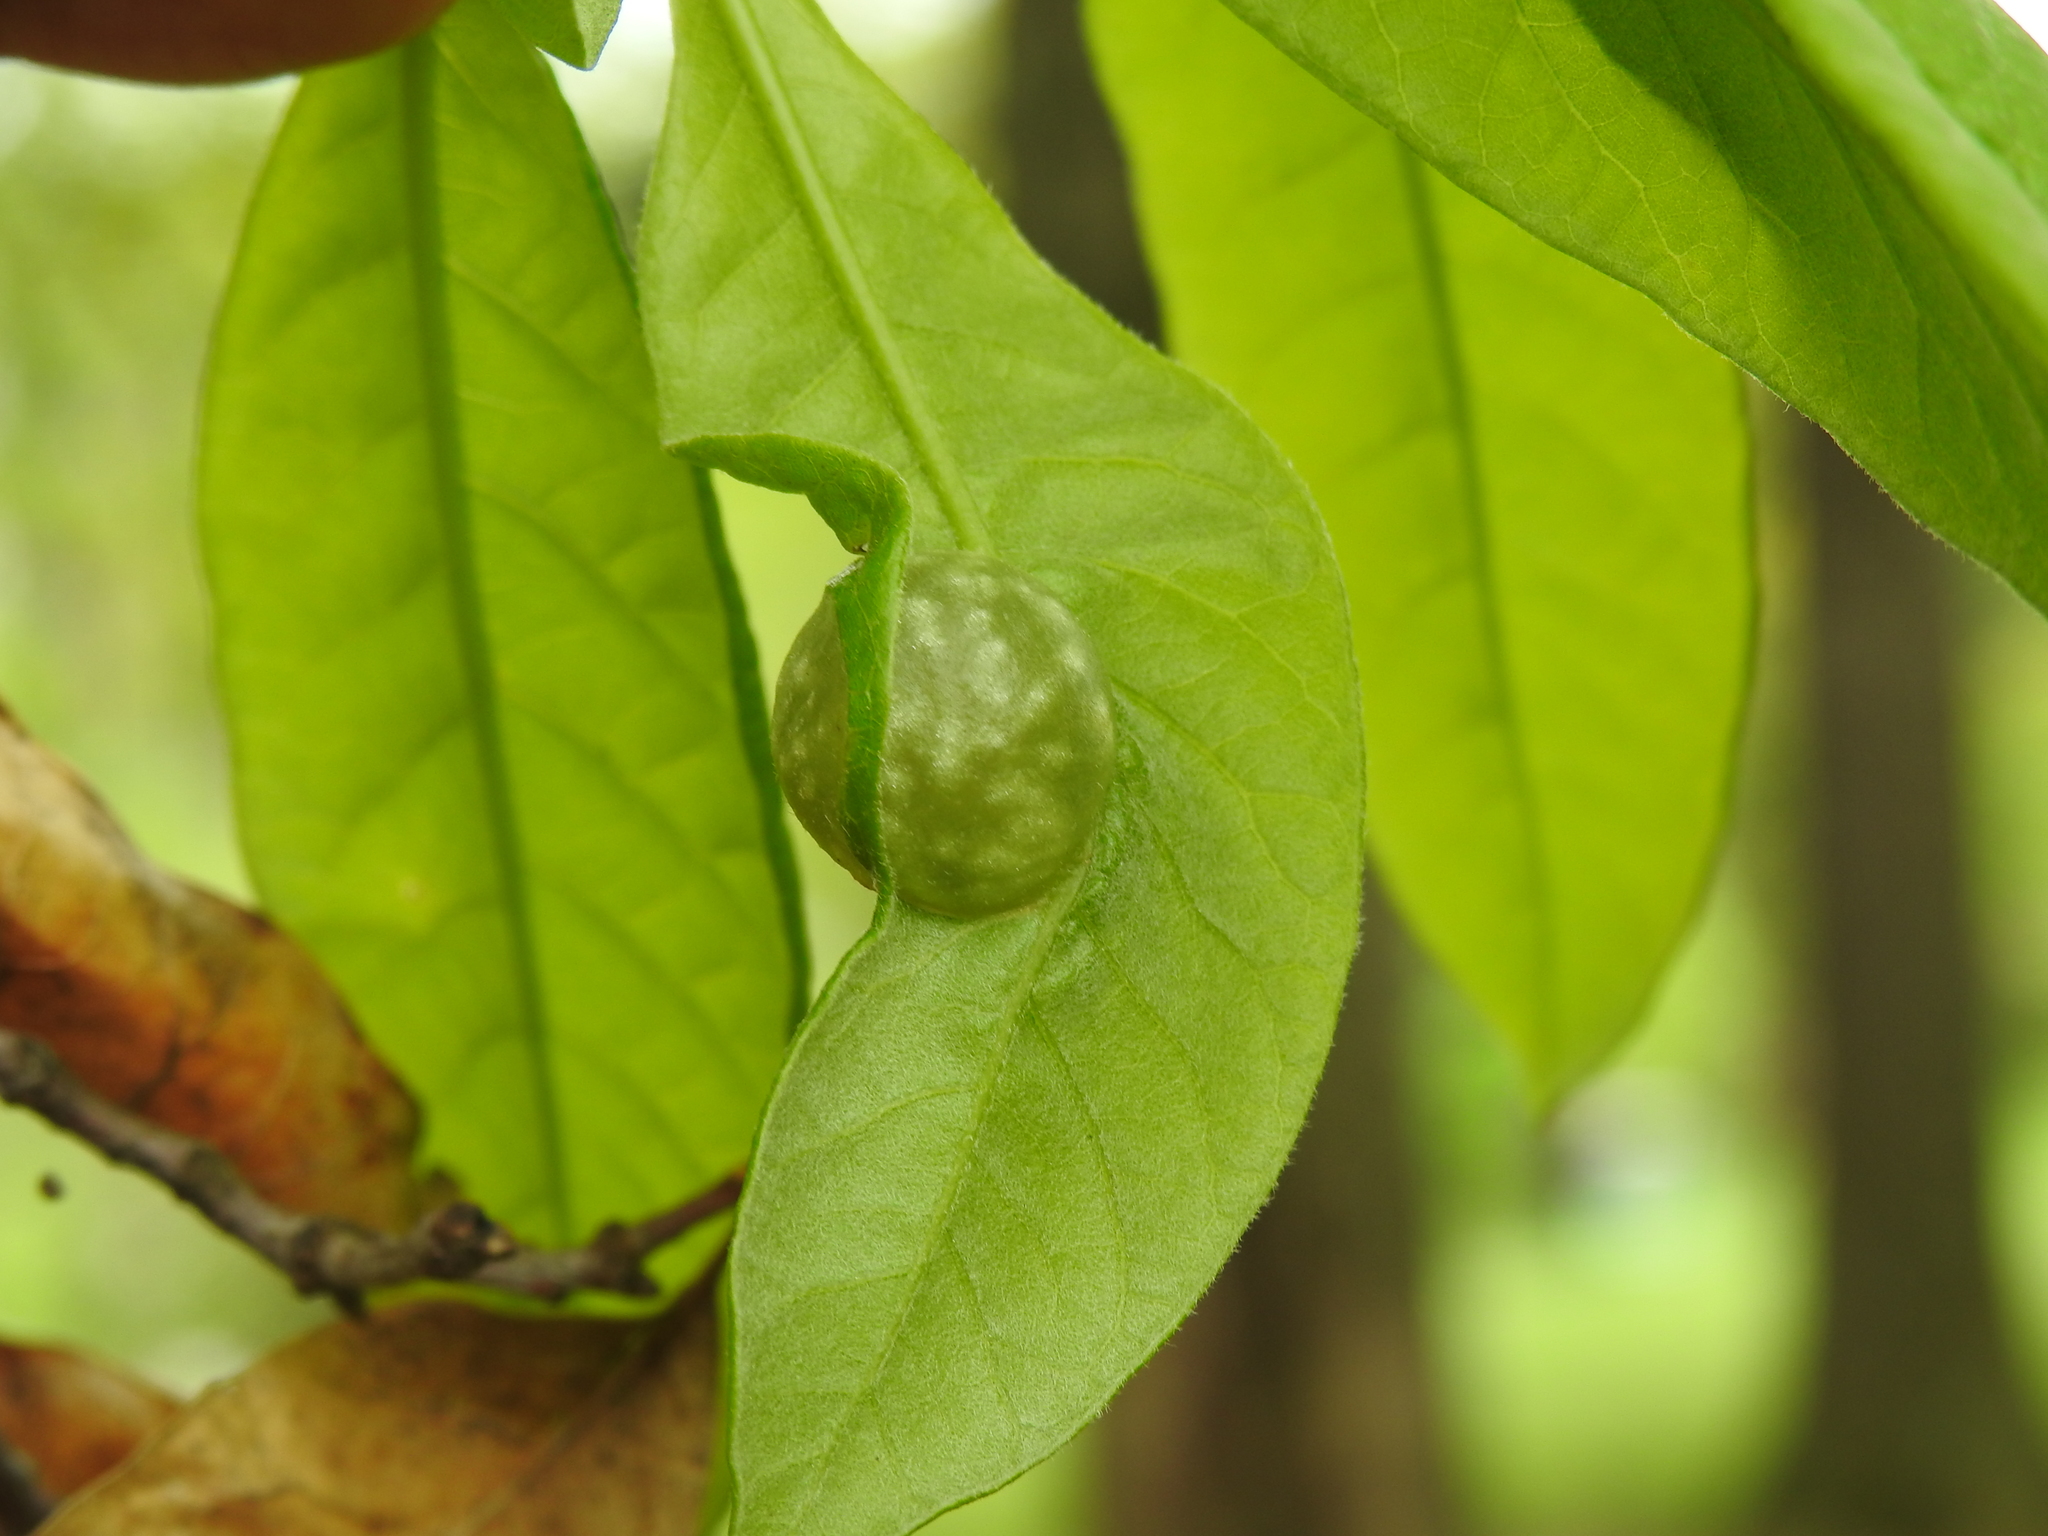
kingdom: Animalia
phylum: Arthropoda
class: Insecta
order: Hymenoptera
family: Cynipidae
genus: Dryocosmus
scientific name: Dryocosmus quercuspalustris
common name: Succulent oak gall wasp
